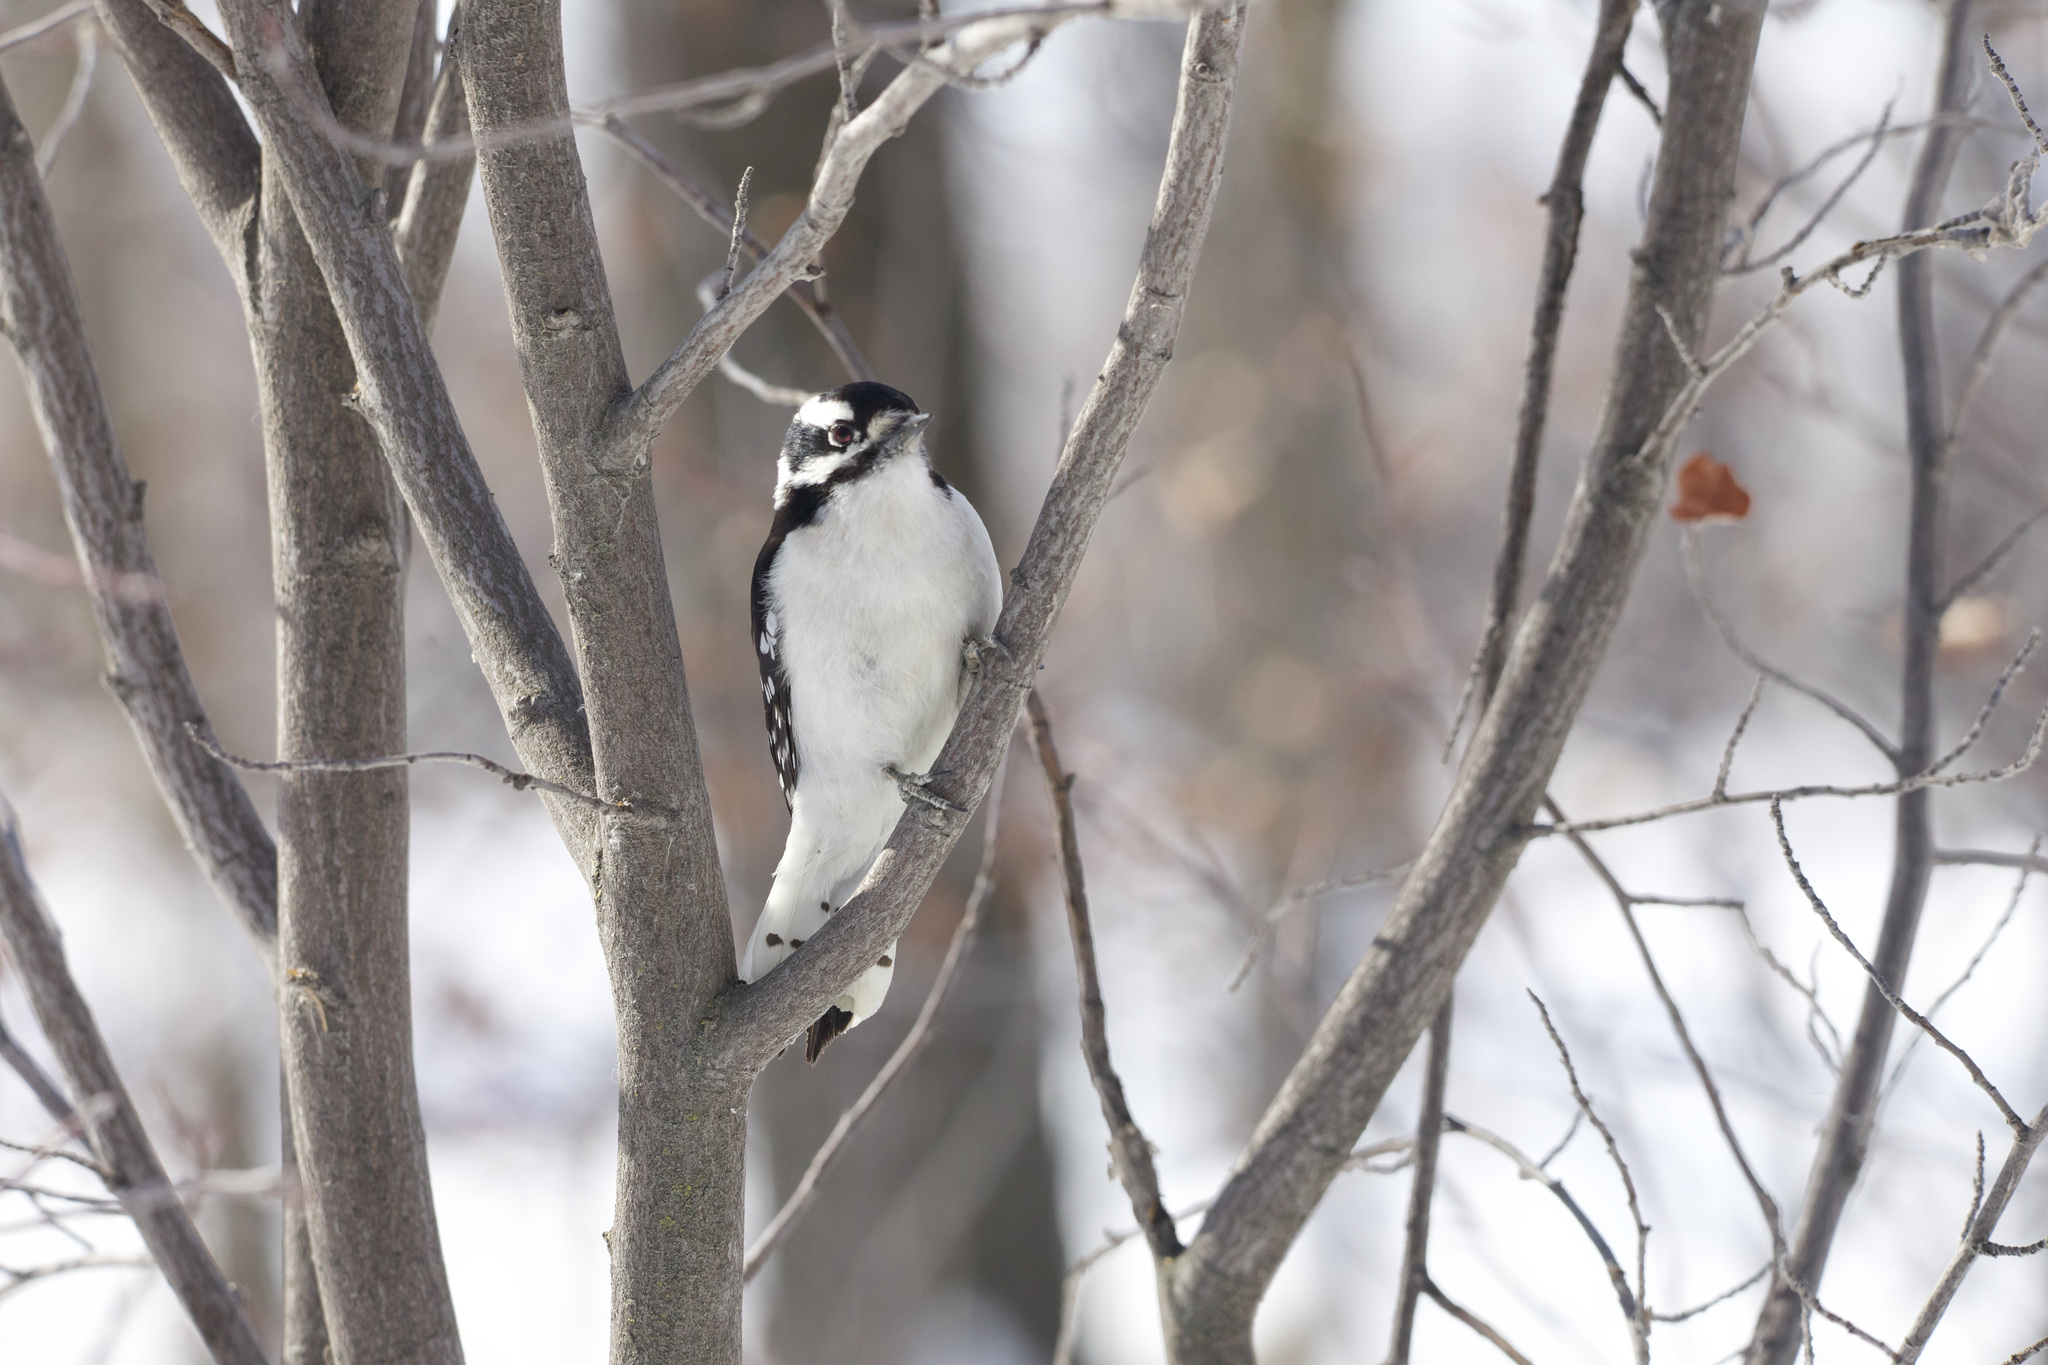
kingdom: Animalia
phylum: Chordata
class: Aves
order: Piciformes
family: Picidae
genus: Dryobates
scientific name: Dryobates pubescens
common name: Downy woodpecker
